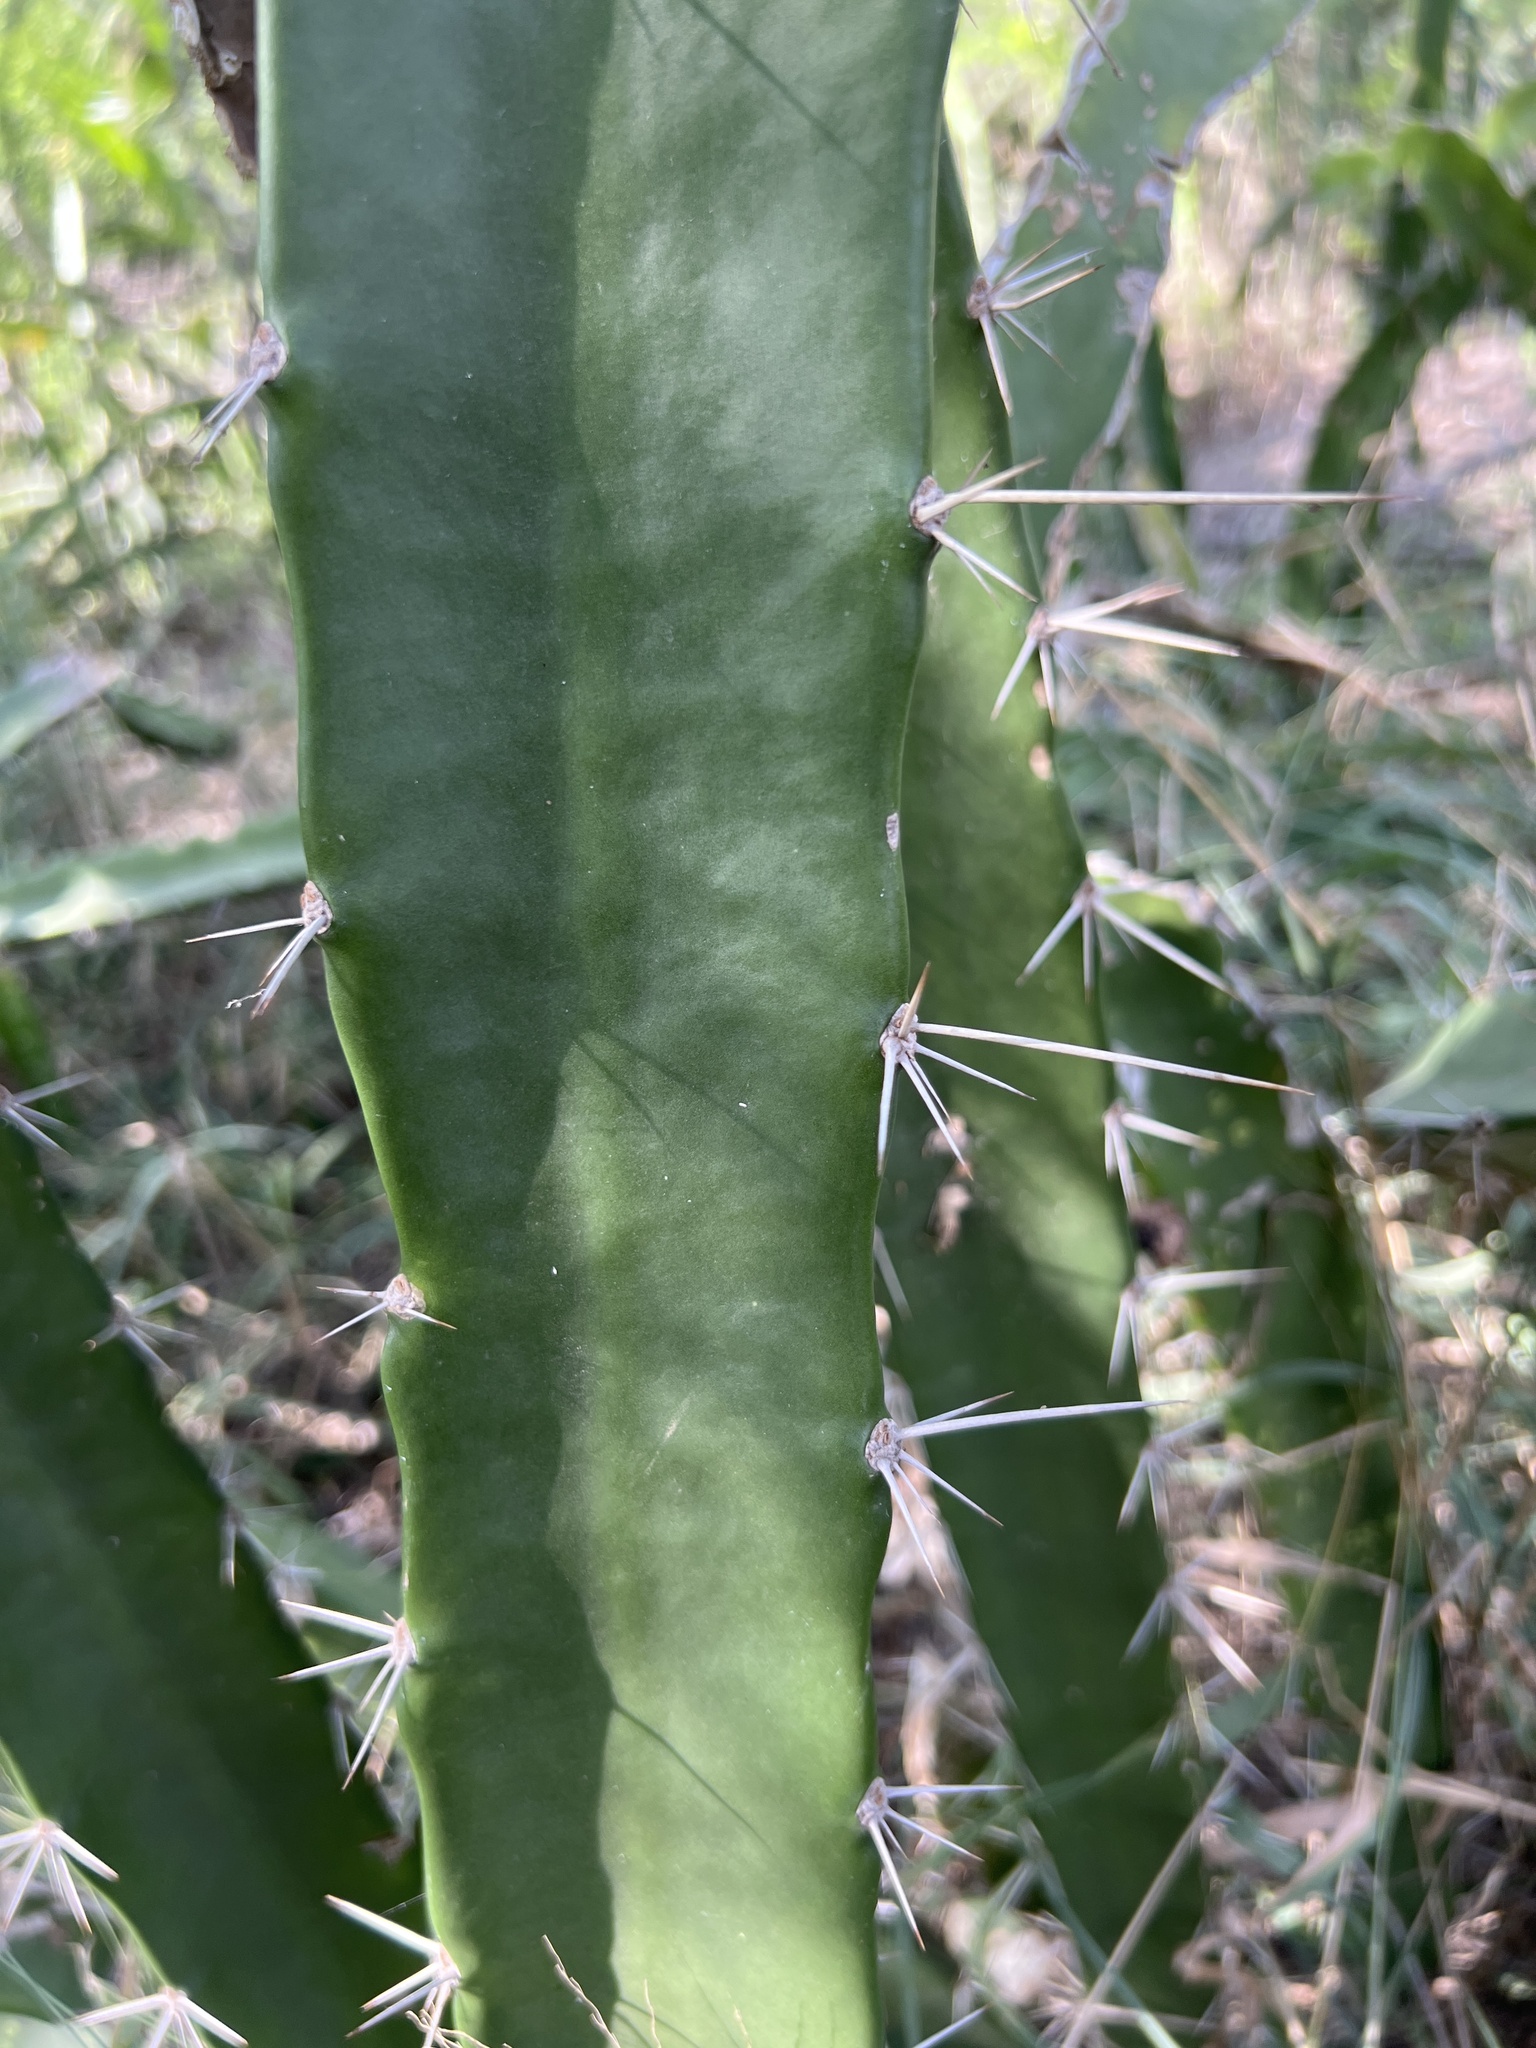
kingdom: Plantae
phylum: Tracheophyta
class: Magnoliopsida
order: Caryophyllales
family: Cactaceae
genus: Acanthocereus
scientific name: Acanthocereus tetragonus
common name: Triangle cactus
